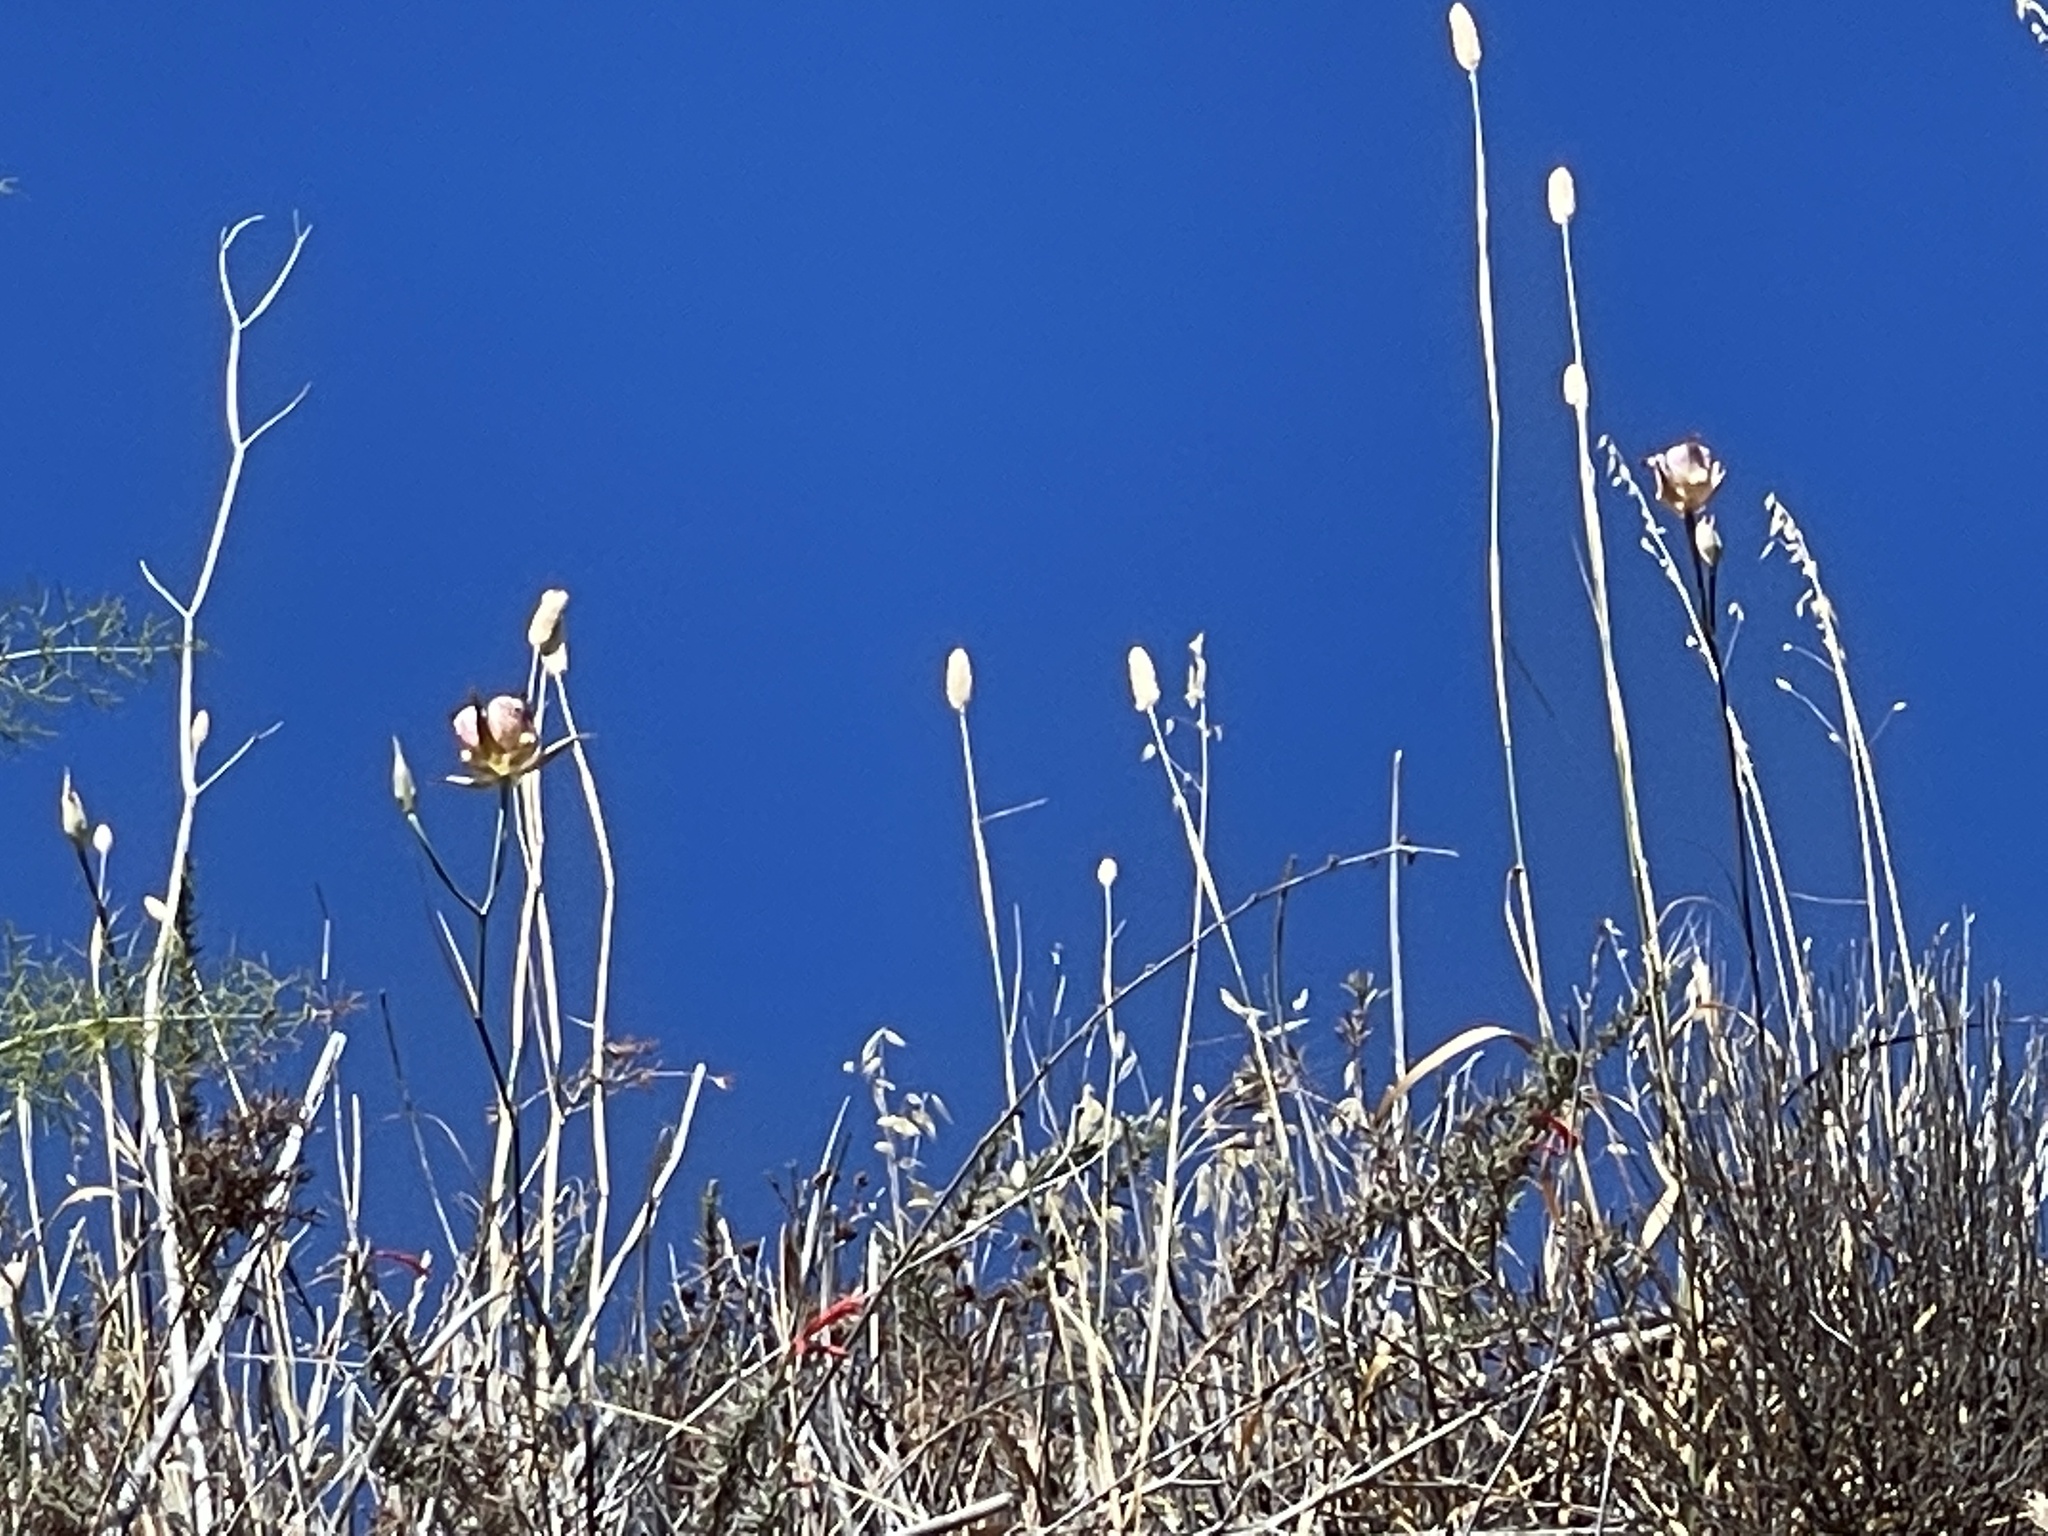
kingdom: Plantae
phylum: Tracheophyta
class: Liliopsida
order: Liliales
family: Liliaceae
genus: Calochortus
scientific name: Calochortus fimbriatus
